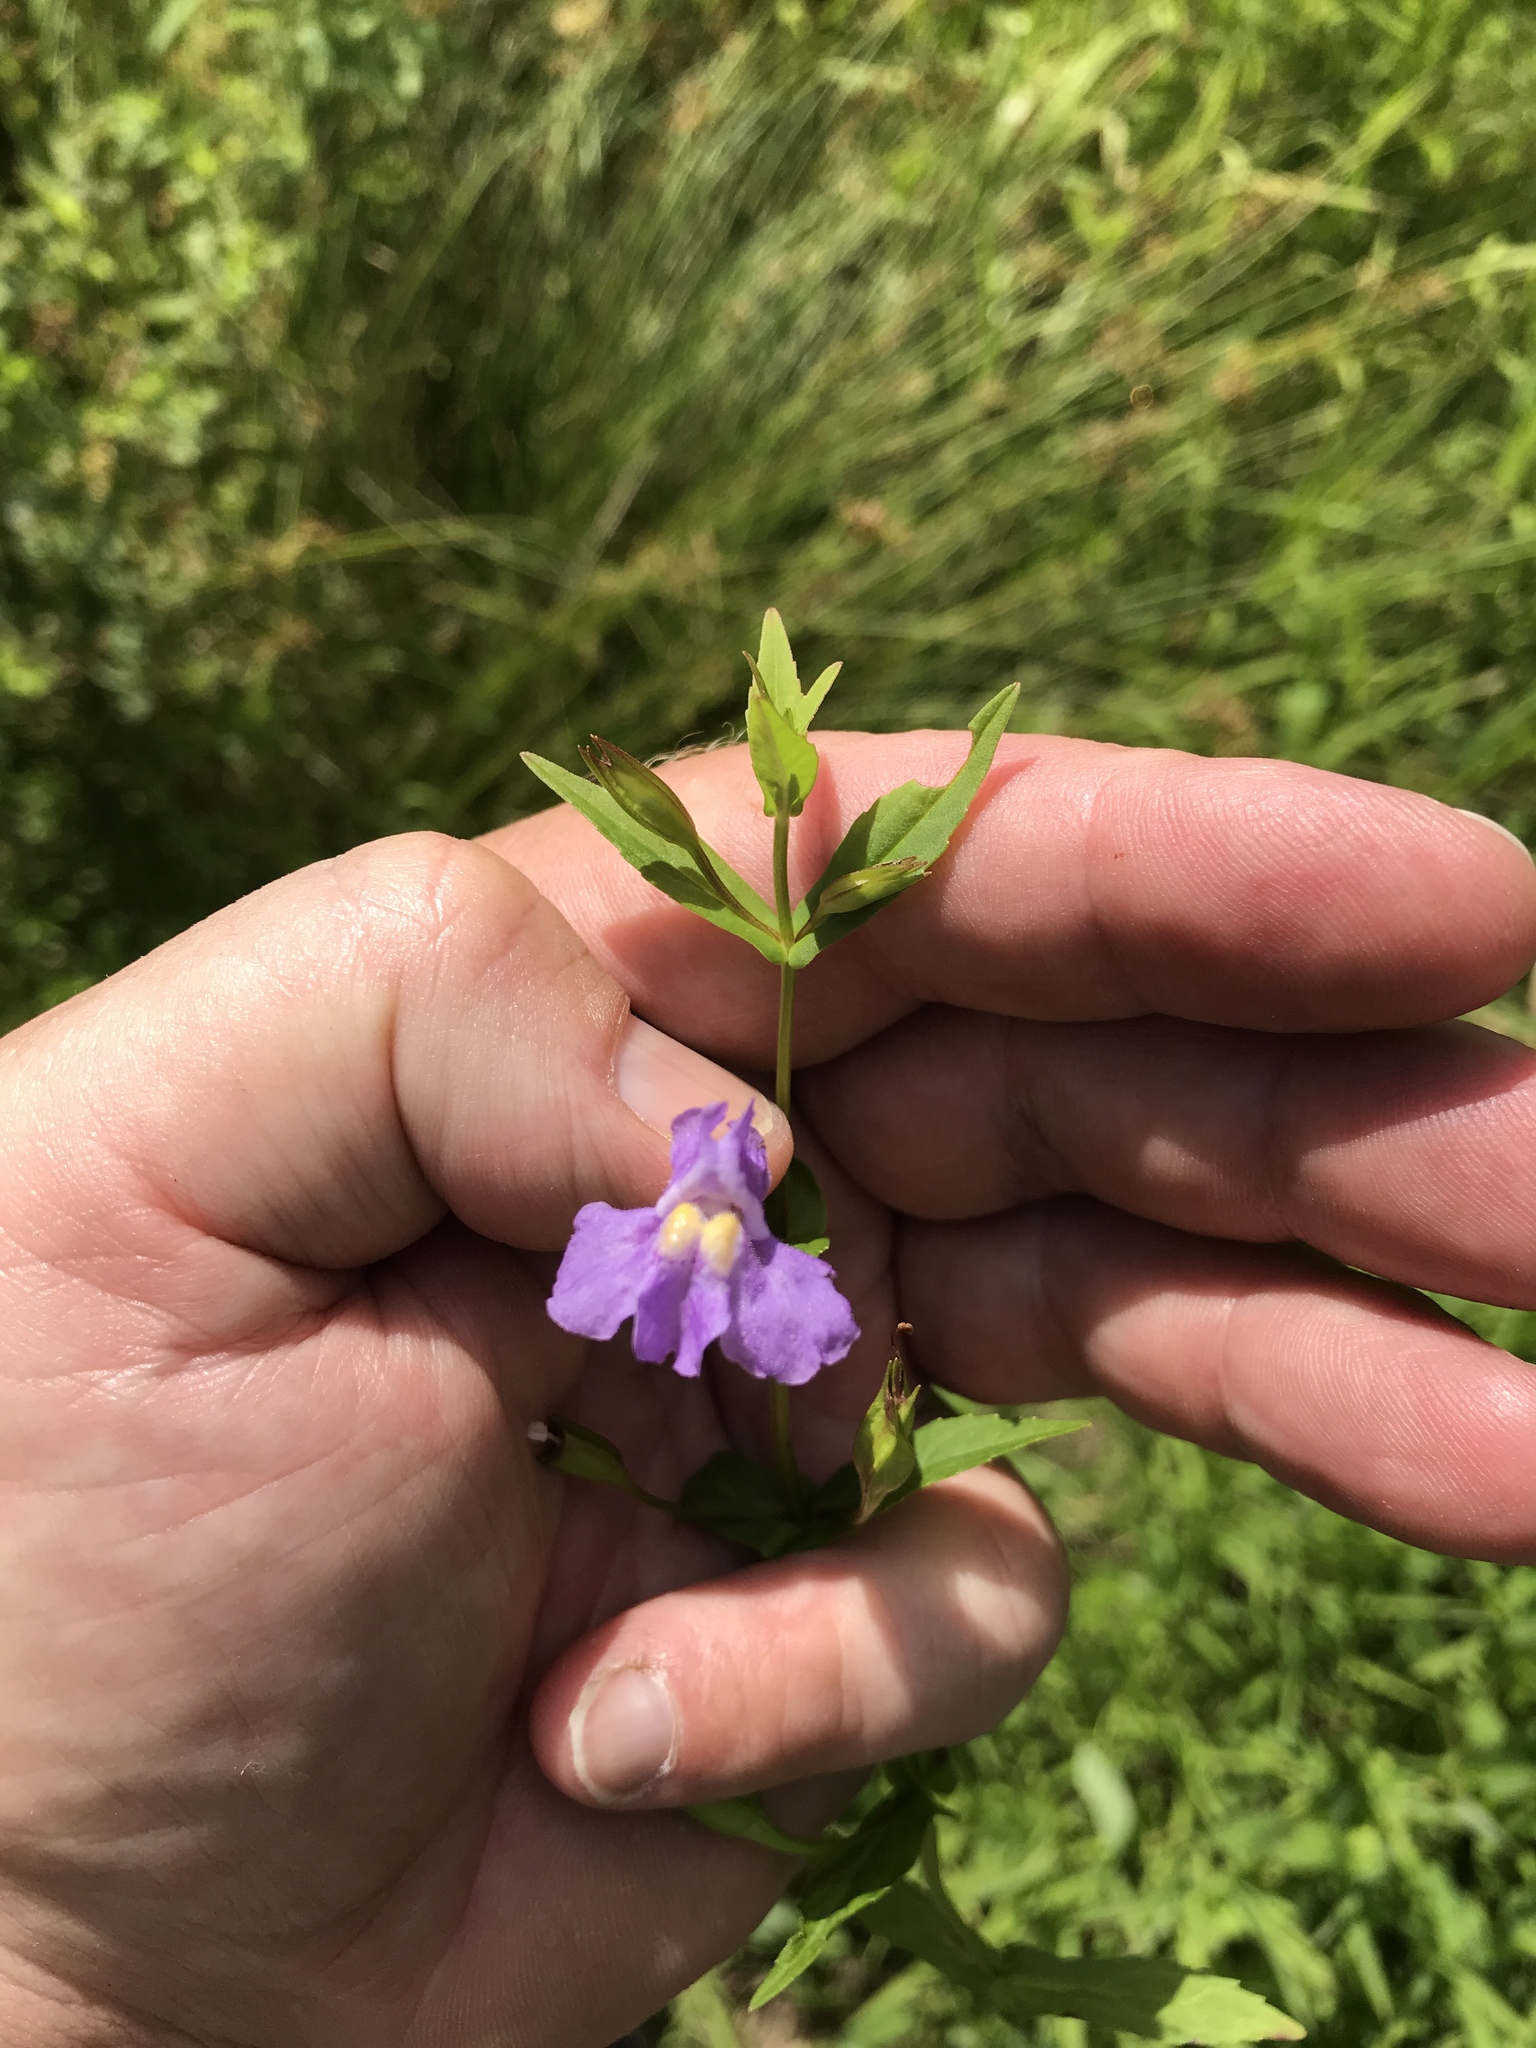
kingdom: Plantae
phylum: Tracheophyta
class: Magnoliopsida
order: Lamiales
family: Phrymaceae
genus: Mimulus
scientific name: Mimulus ringens
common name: Allegheny monkeyflower
